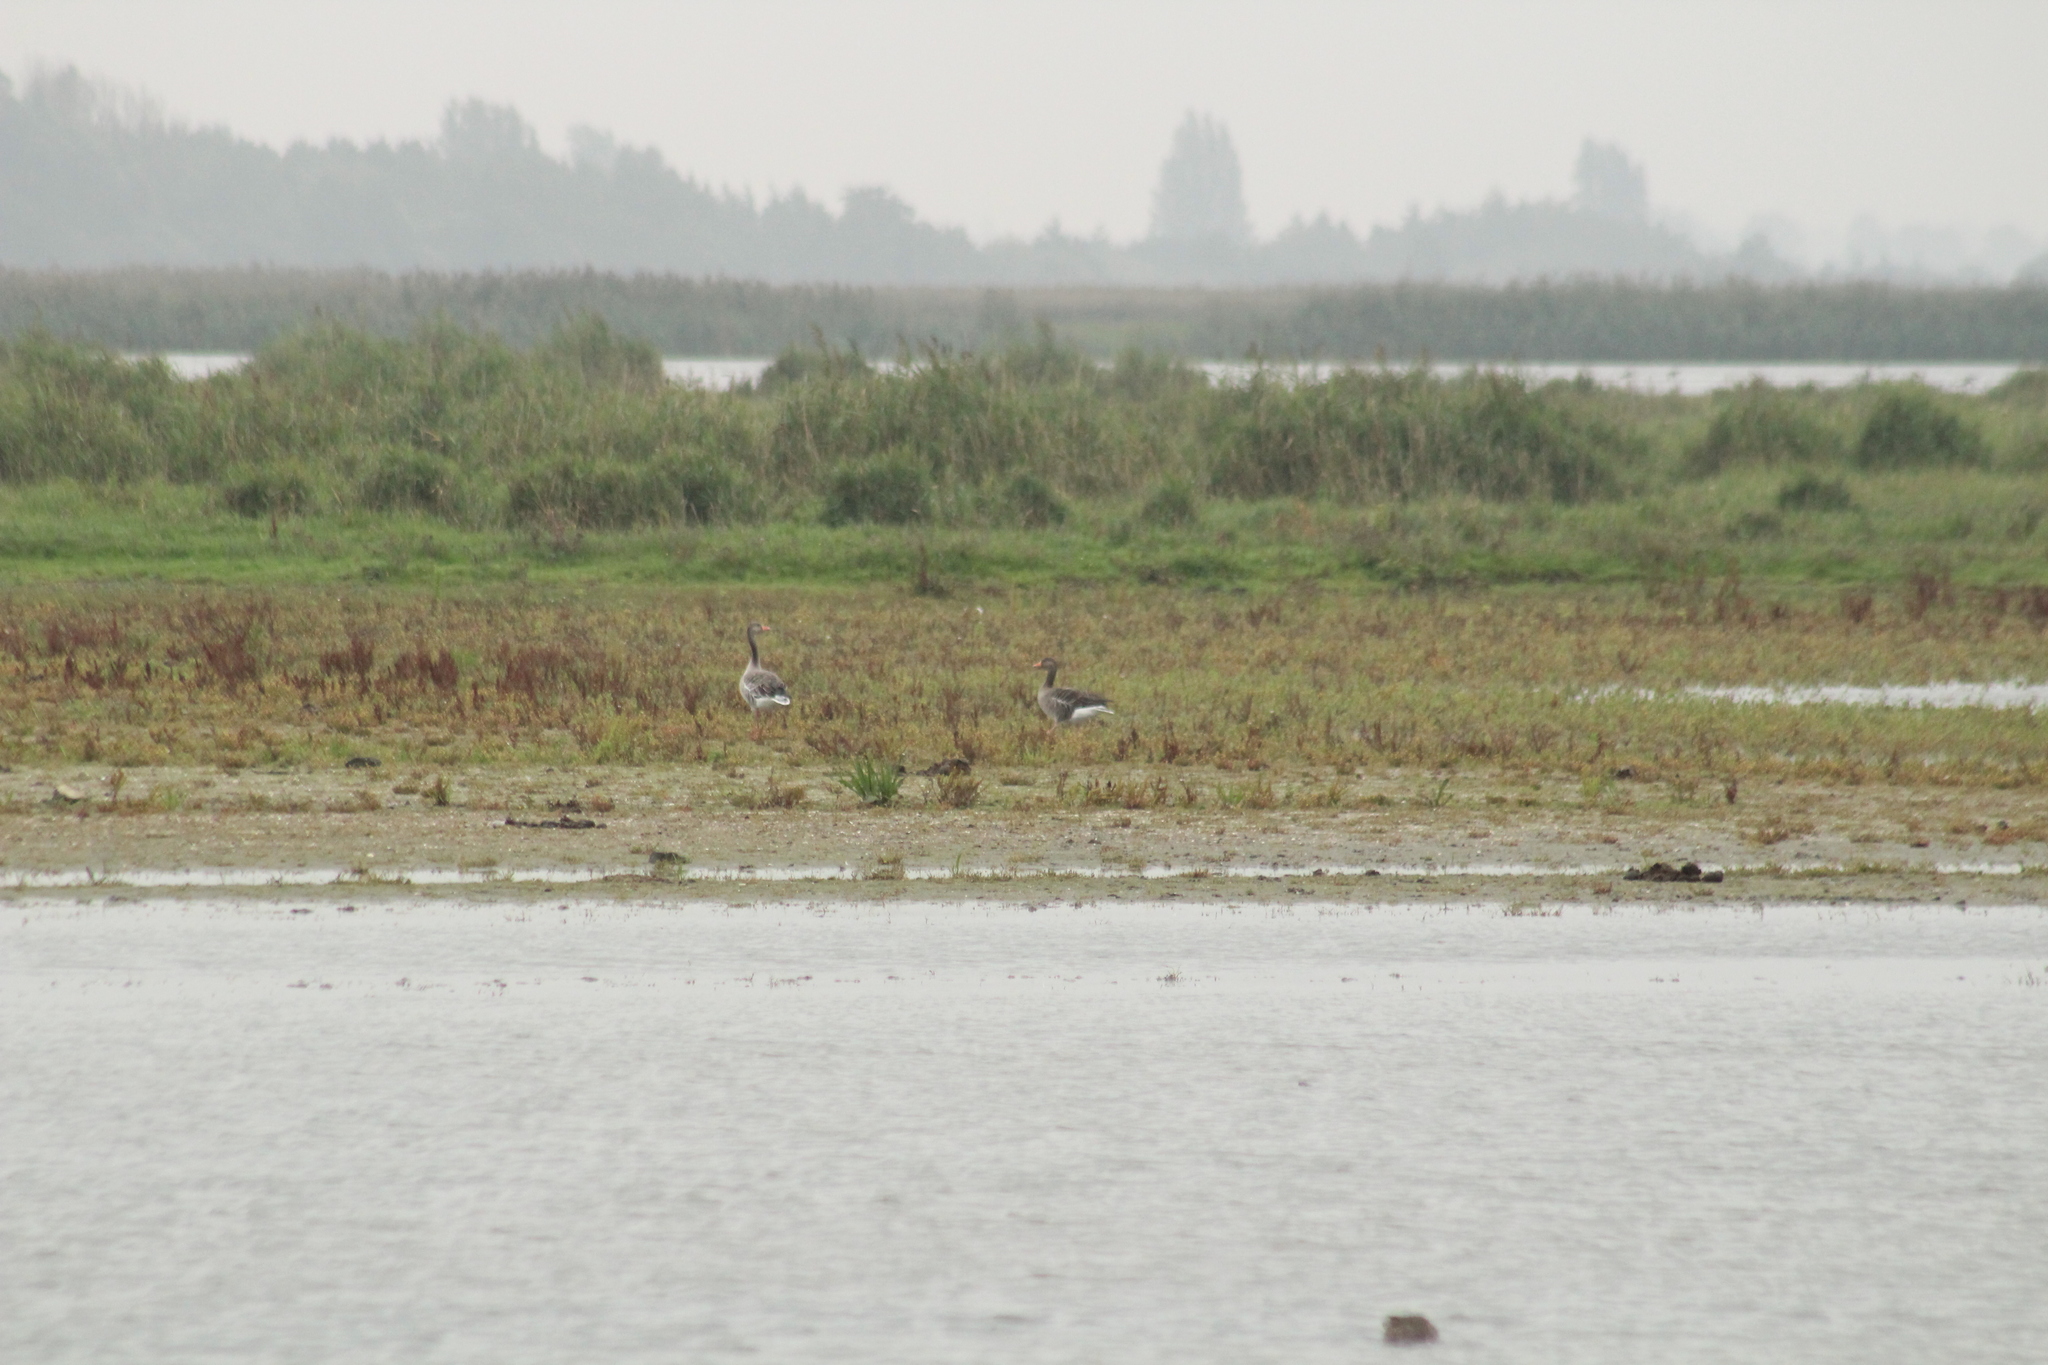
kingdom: Animalia
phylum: Chordata
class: Aves
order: Anseriformes
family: Anatidae
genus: Anser
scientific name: Anser anser
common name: Greylag goose
